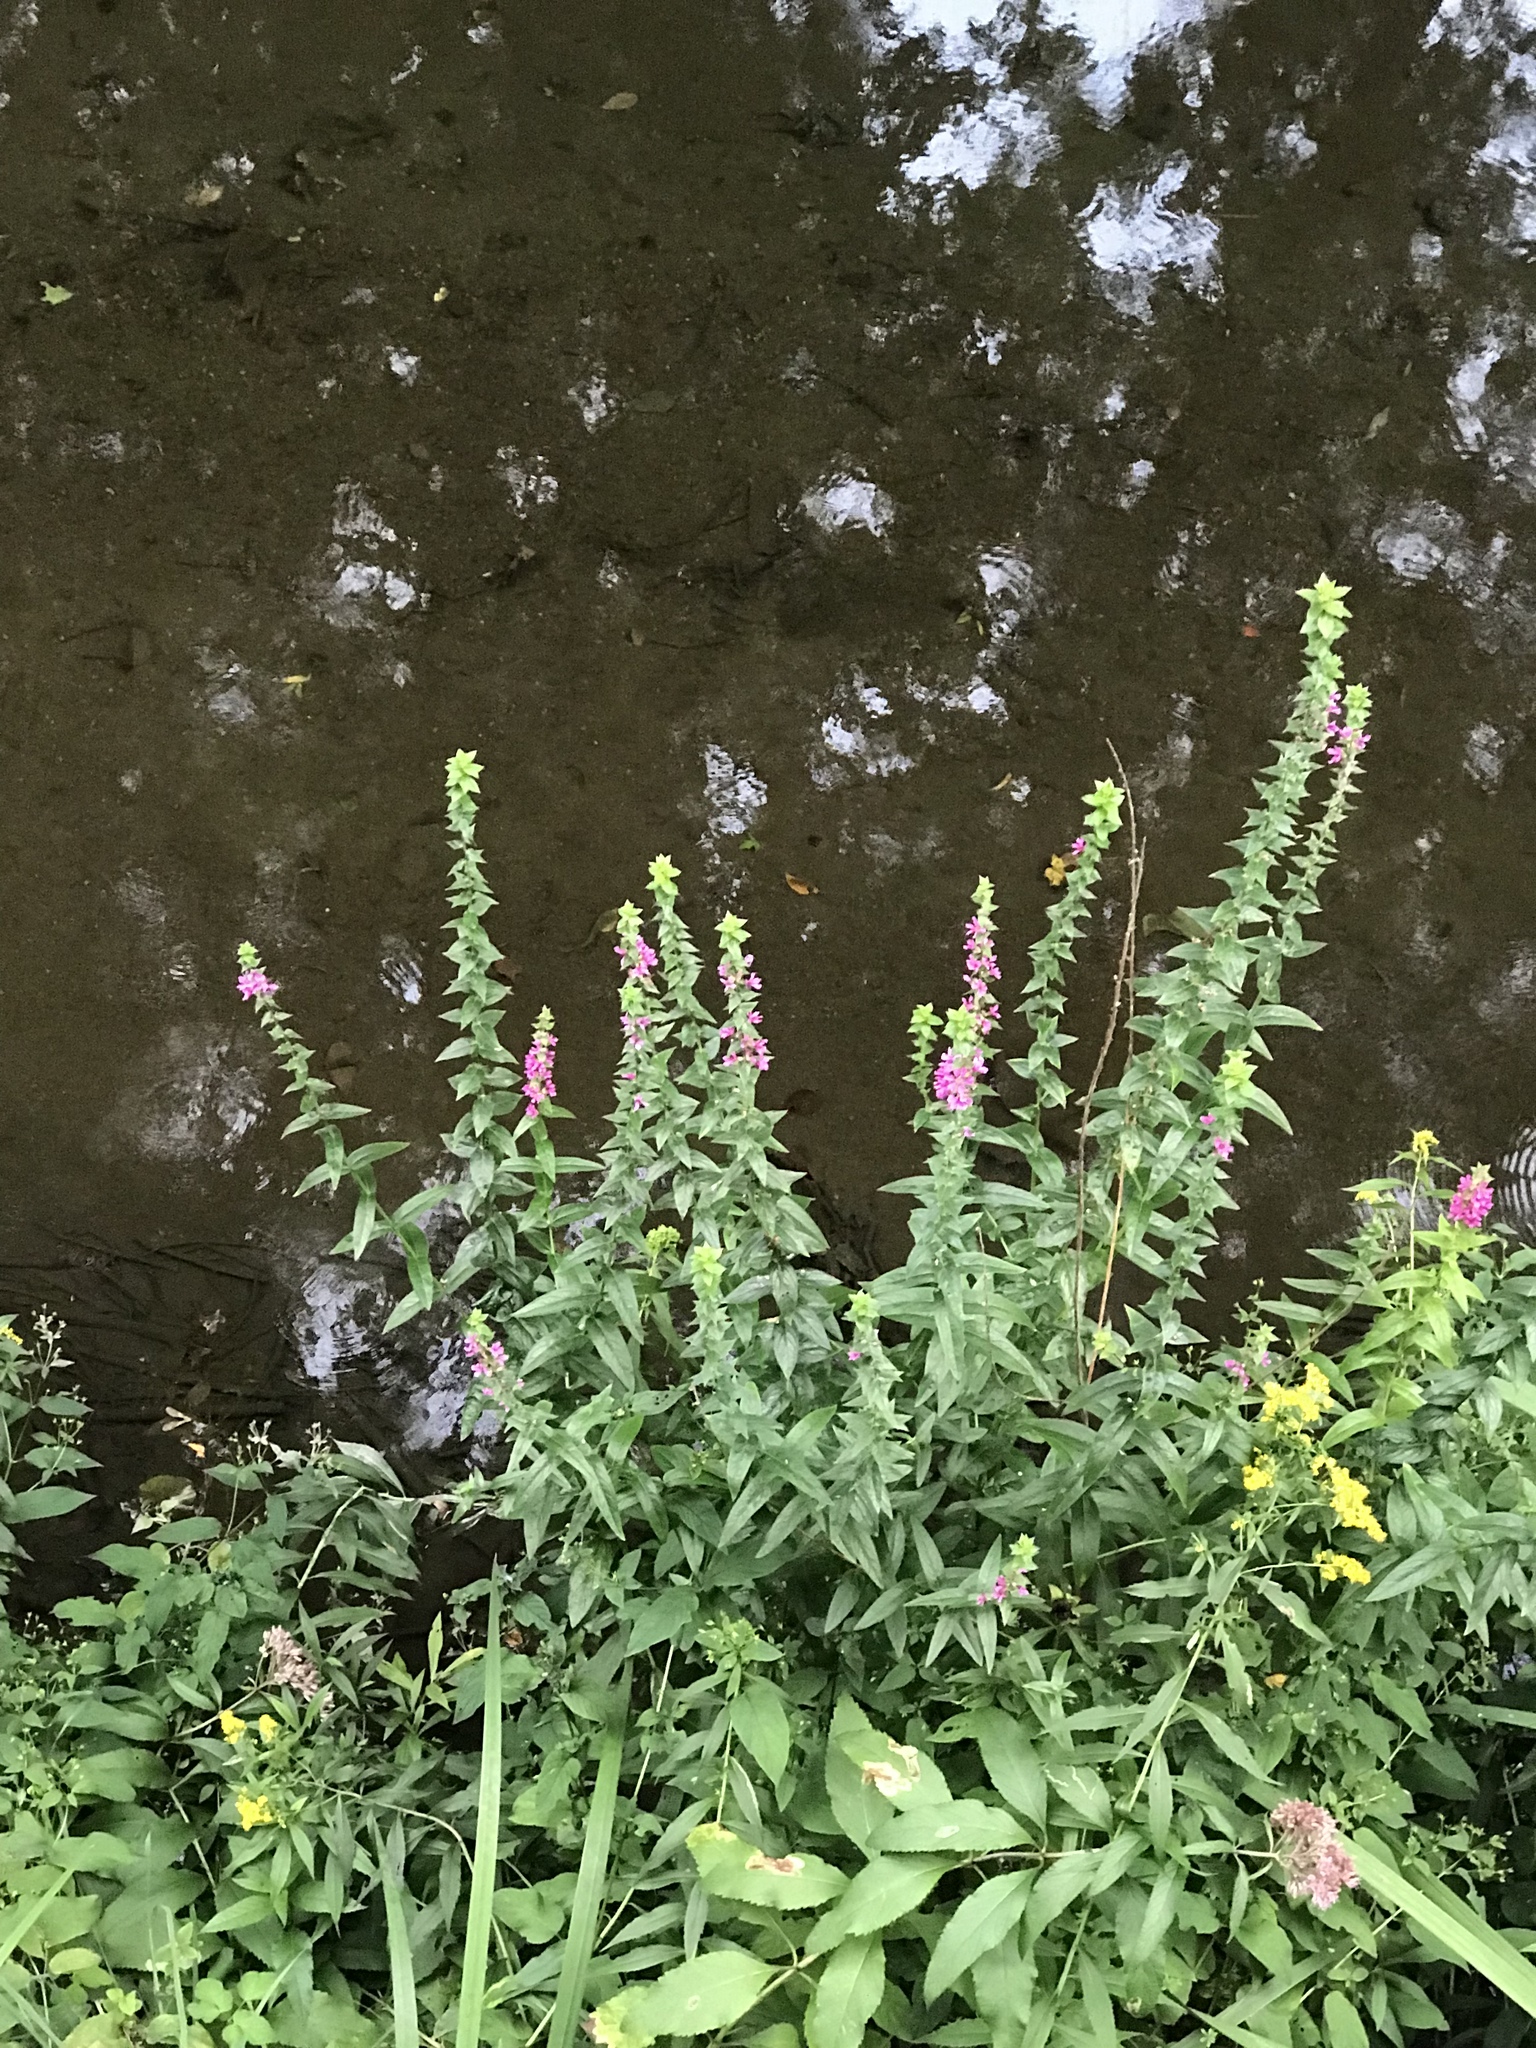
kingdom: Plantae
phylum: Tracheophyta
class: Magnoliopsida
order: Myrtales
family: Lythraceae
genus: Lythrum
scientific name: Lythrum salicaria
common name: Purple loosestrife
